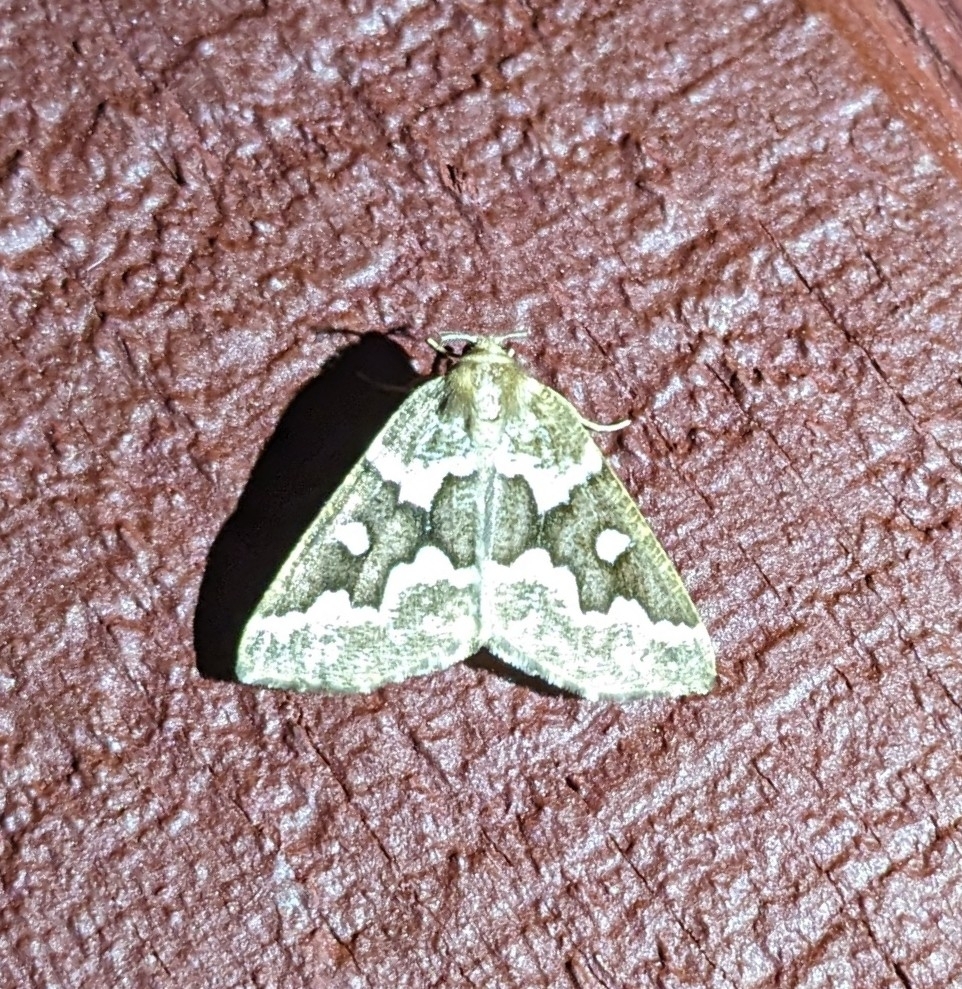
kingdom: Animalia
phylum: Arthropoda
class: Insecta
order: Lepidoptera
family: Geometridae
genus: Caripeta
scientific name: Caripeta divisata
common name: Gray spruce looper
